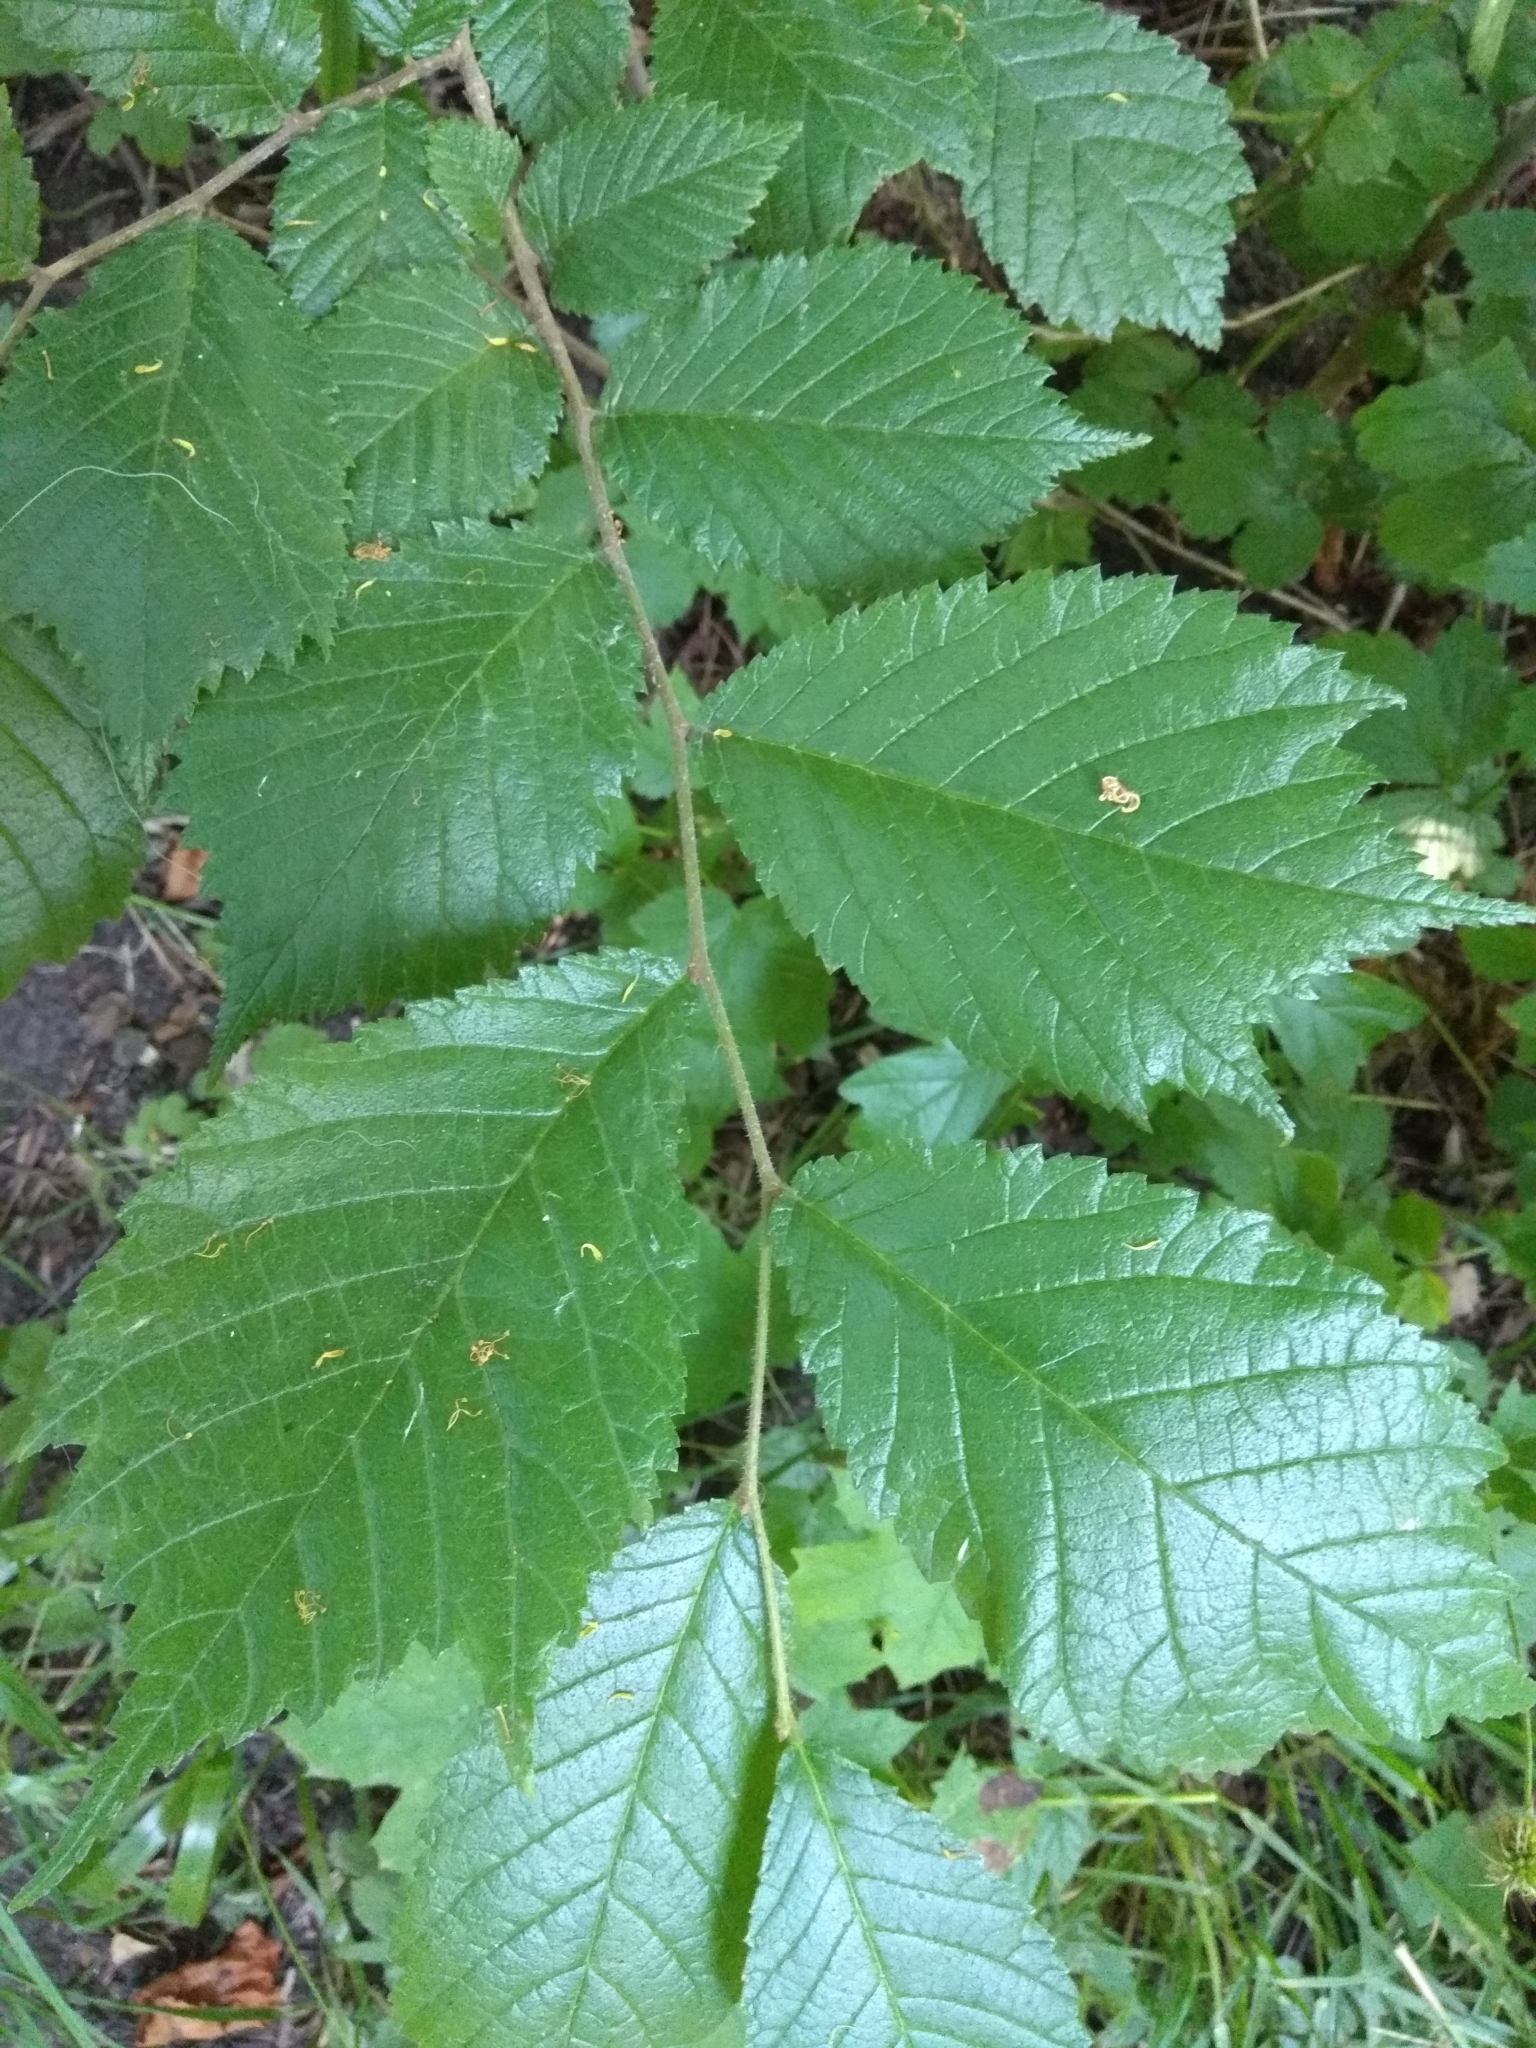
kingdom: Plantae
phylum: Tracheophyta
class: Magnoliopsida
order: Rosales
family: Ulmaceae
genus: Ulmus
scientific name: Ulmus glabra
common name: Wych elm
